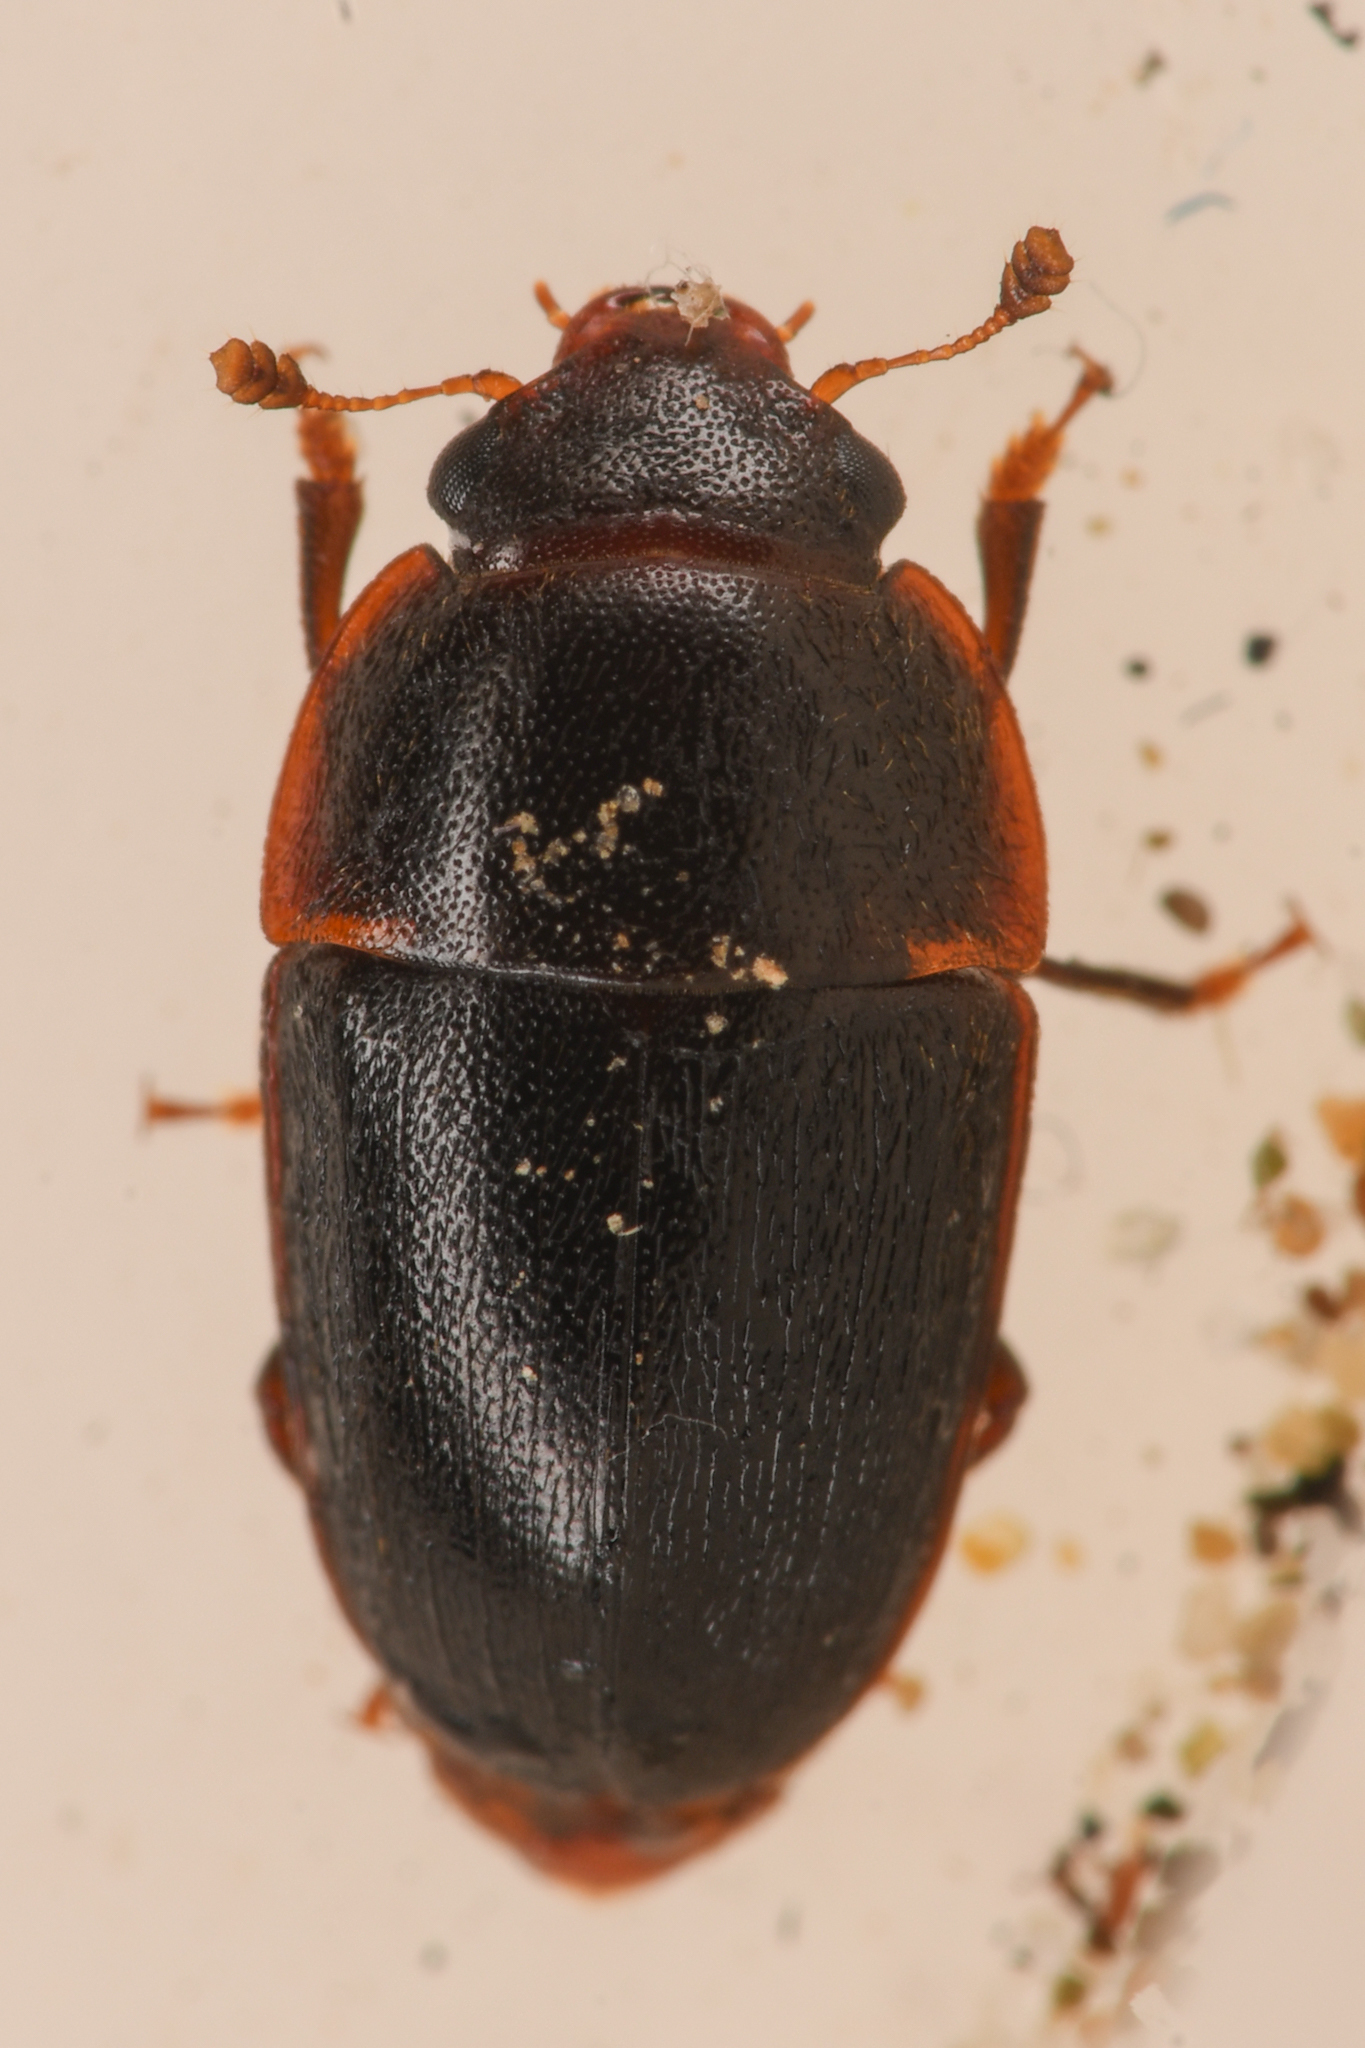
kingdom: Animalia
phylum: Arthropoda
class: Insecta
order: Coleoptera
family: Nitidulidae
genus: Cryptarcha
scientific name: Cryptarcha ampla
